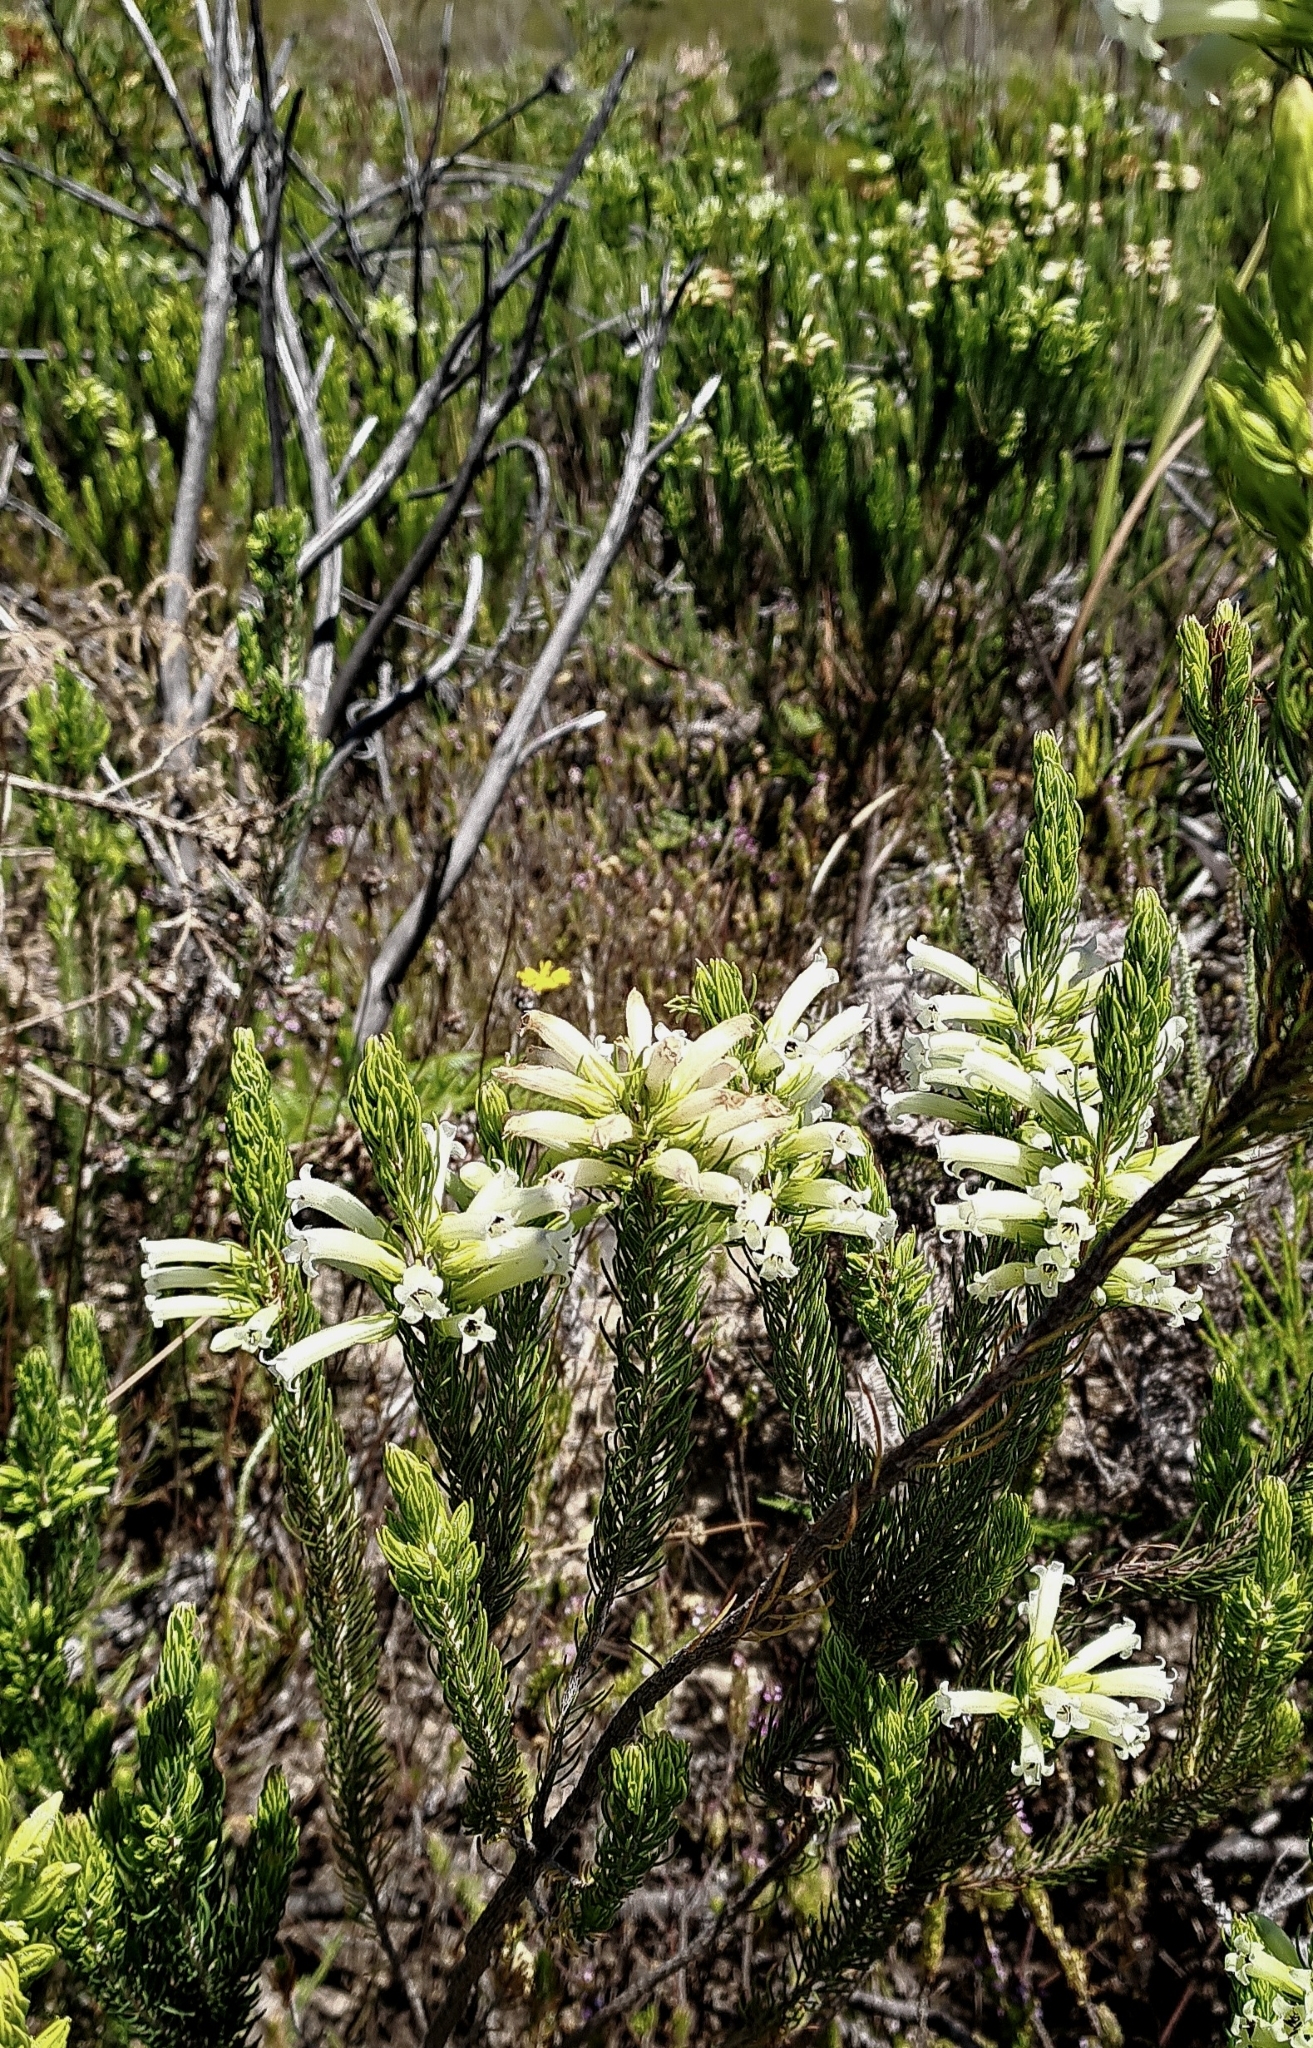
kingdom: Plantae
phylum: Tracheophyta
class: Magnoliopsida
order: Ericales
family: Ericaceae
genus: Erica
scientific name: Erica viscaria
